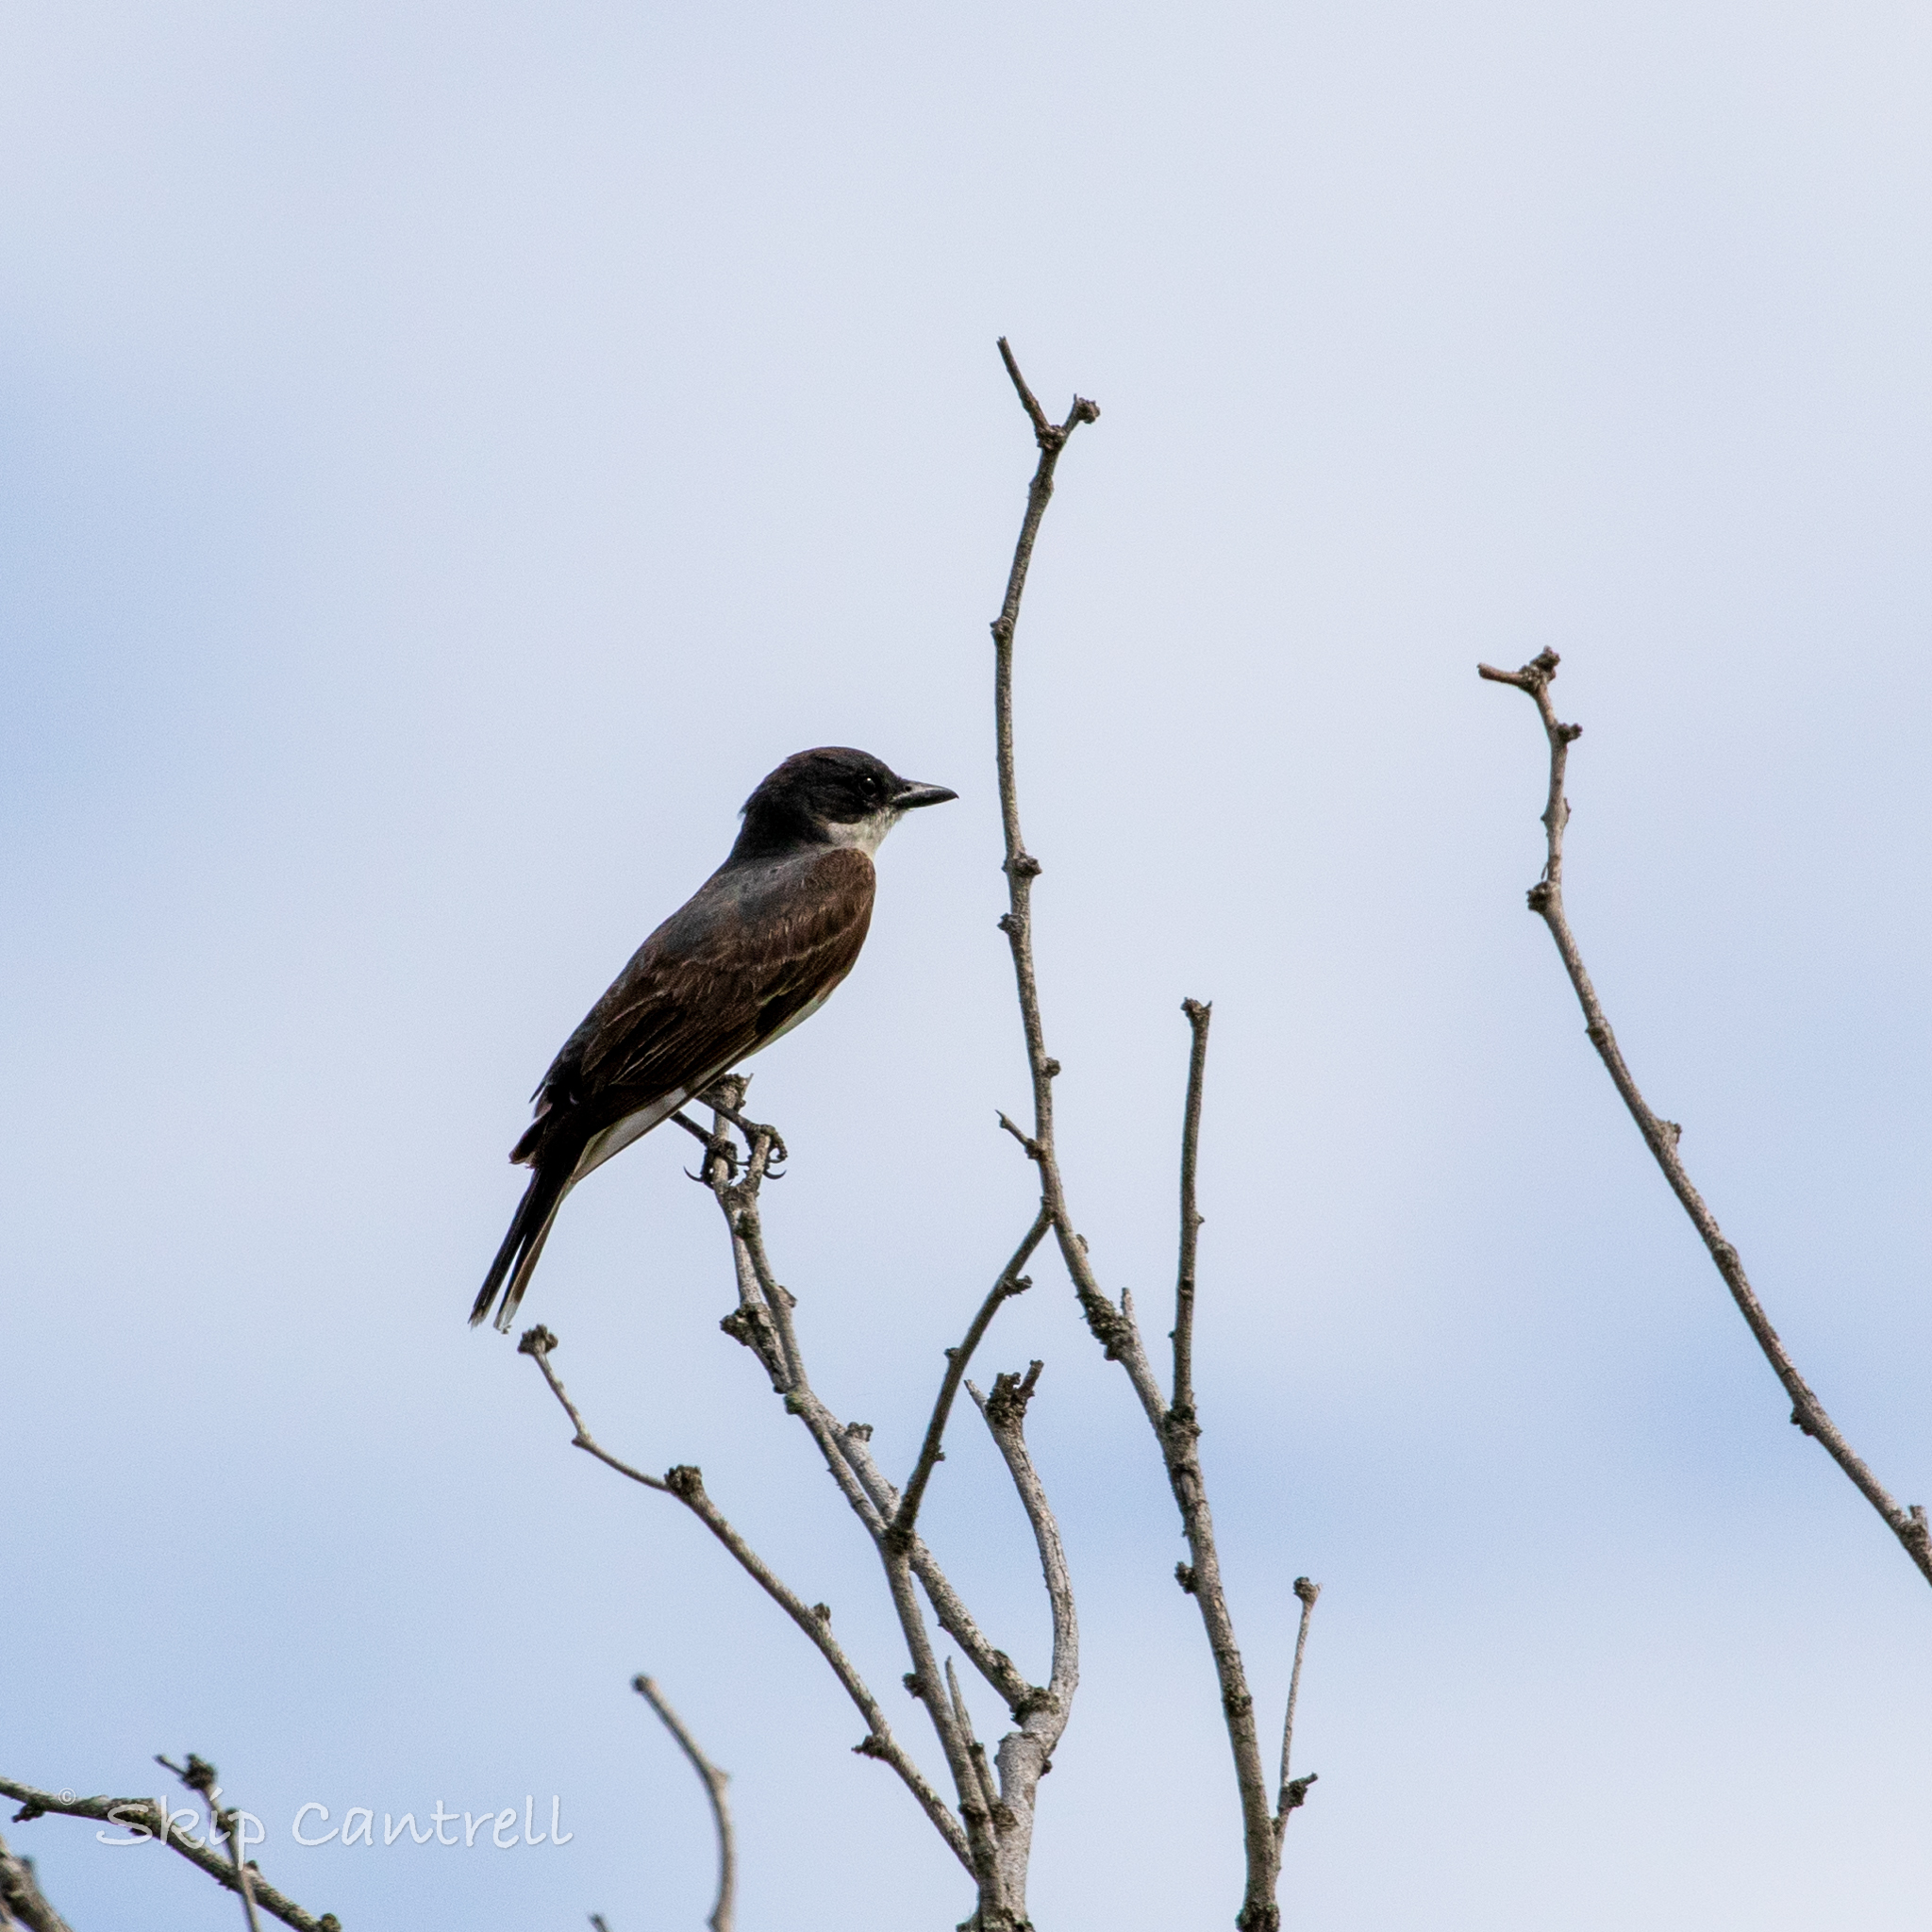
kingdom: Animalia
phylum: Chordata
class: Aves
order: Passeriformes
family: Tyrannidae
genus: Tyrannus
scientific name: Tyrannus tyrannus
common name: Eastern kingbird
